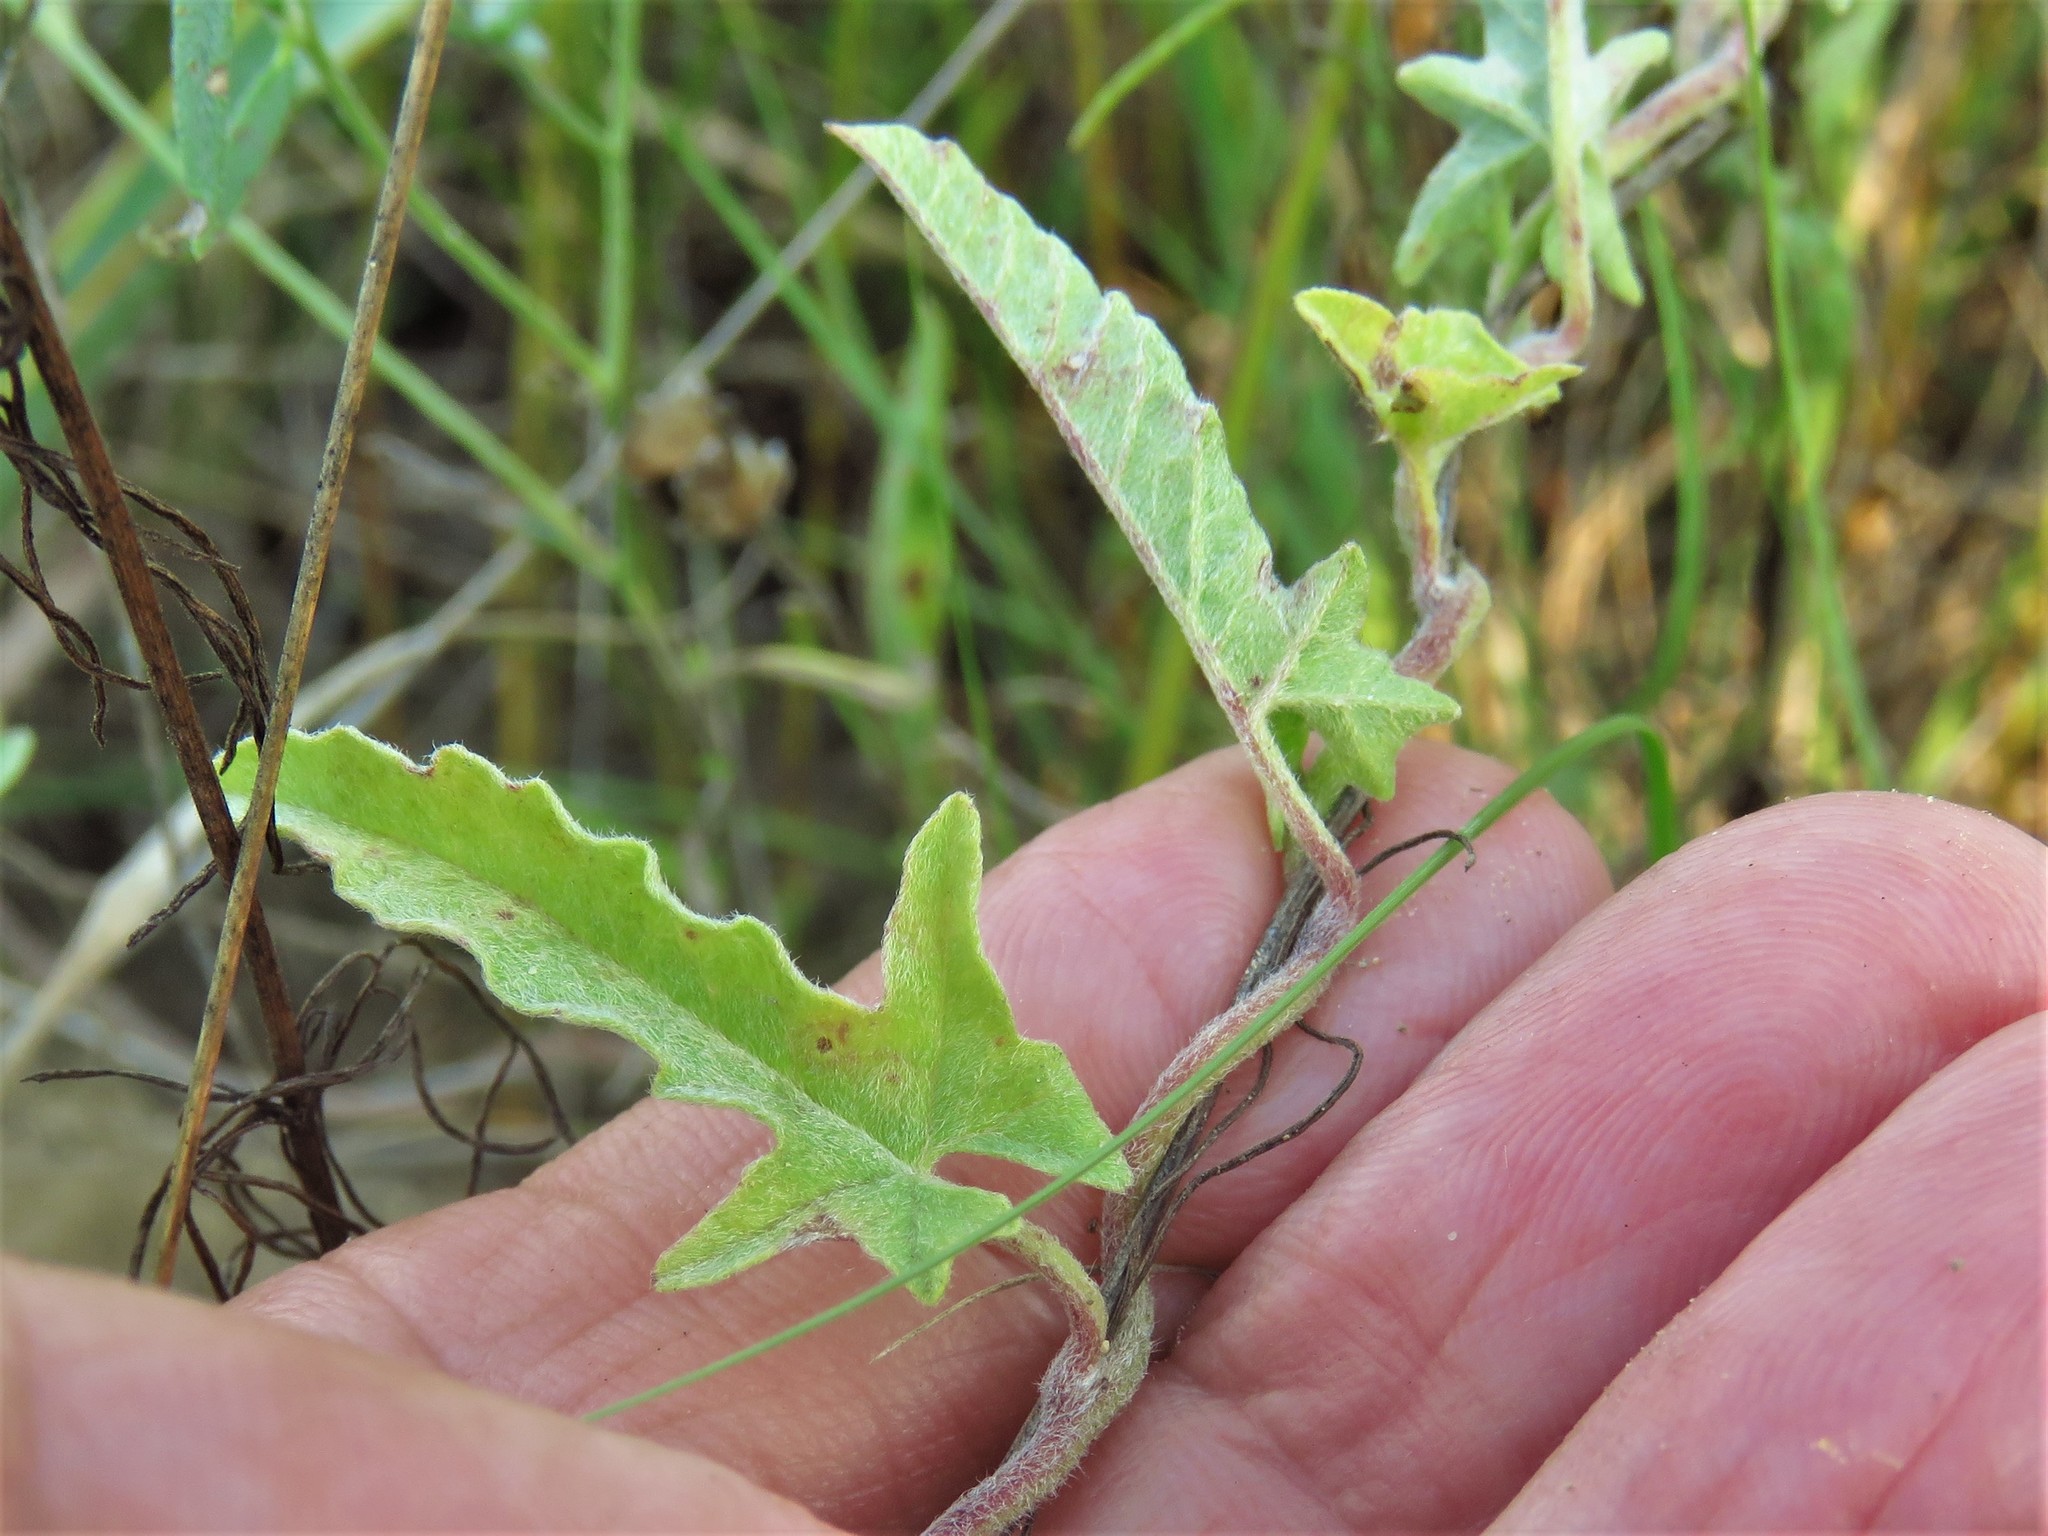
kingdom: Plantae
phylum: Tracheophyta
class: Magnoliopsida
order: Solanales
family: Convolvulaceae
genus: Convolvulus
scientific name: Convolvulus equitans
